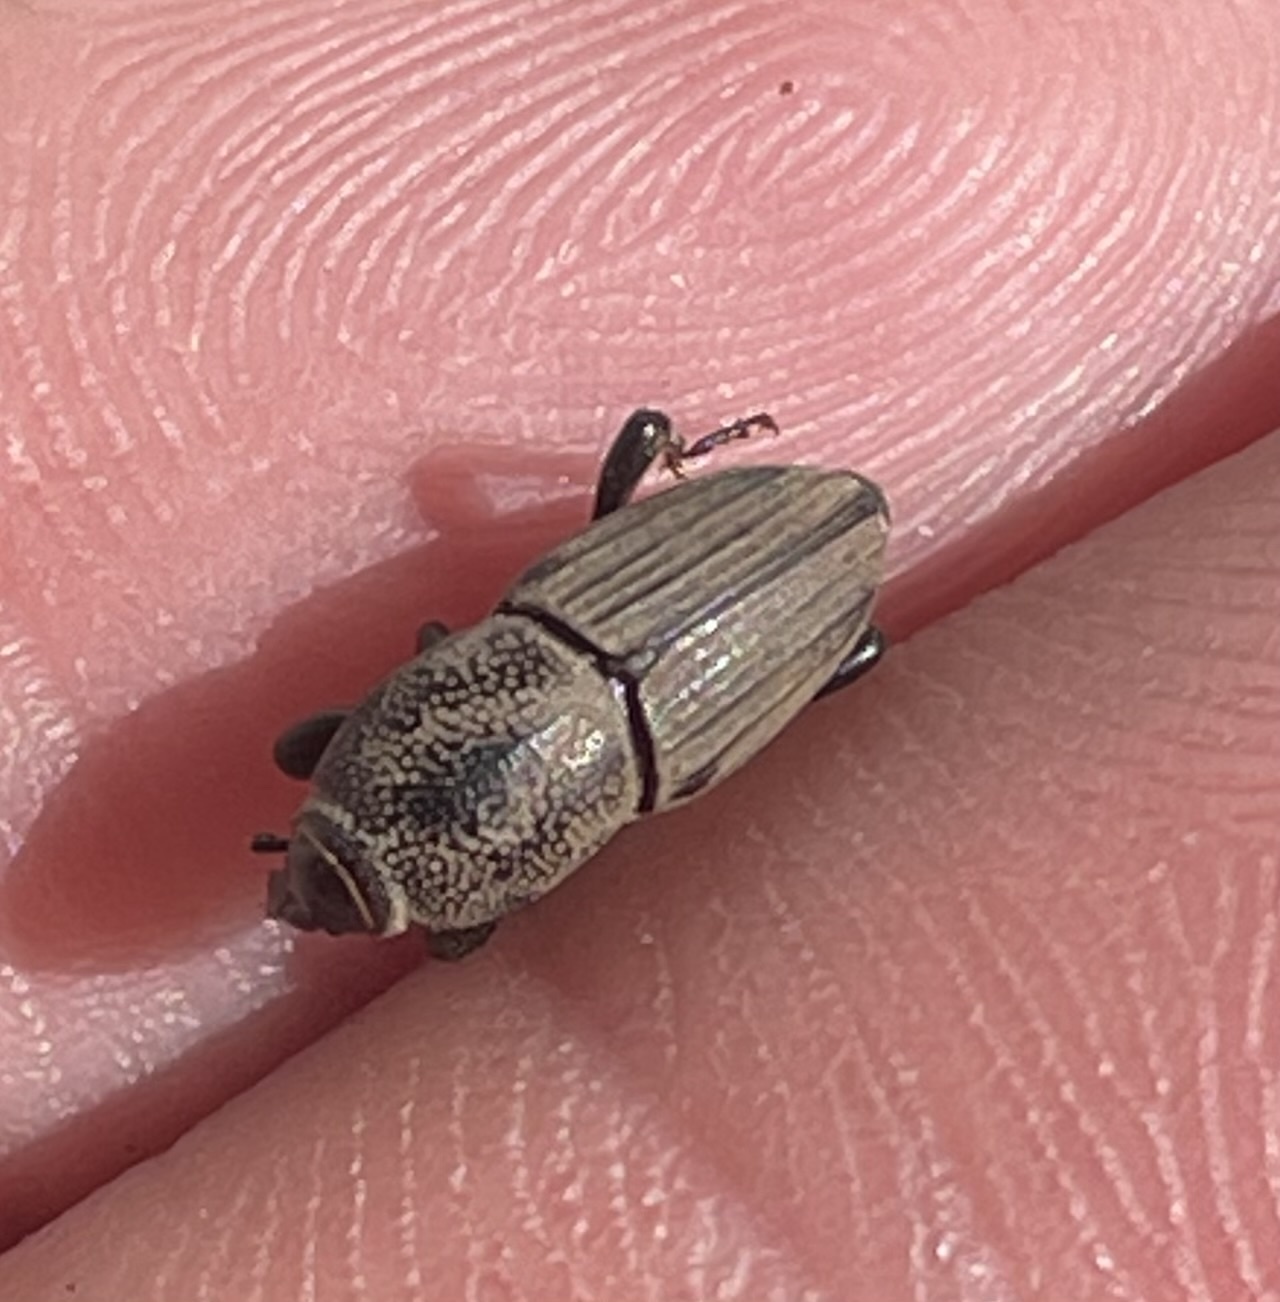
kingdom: Animalia
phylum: Arthropoda
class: Insecta
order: Coleoptera
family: Dryophthoridae
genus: Sphenophorus
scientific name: Sphenophorus coesifrons
